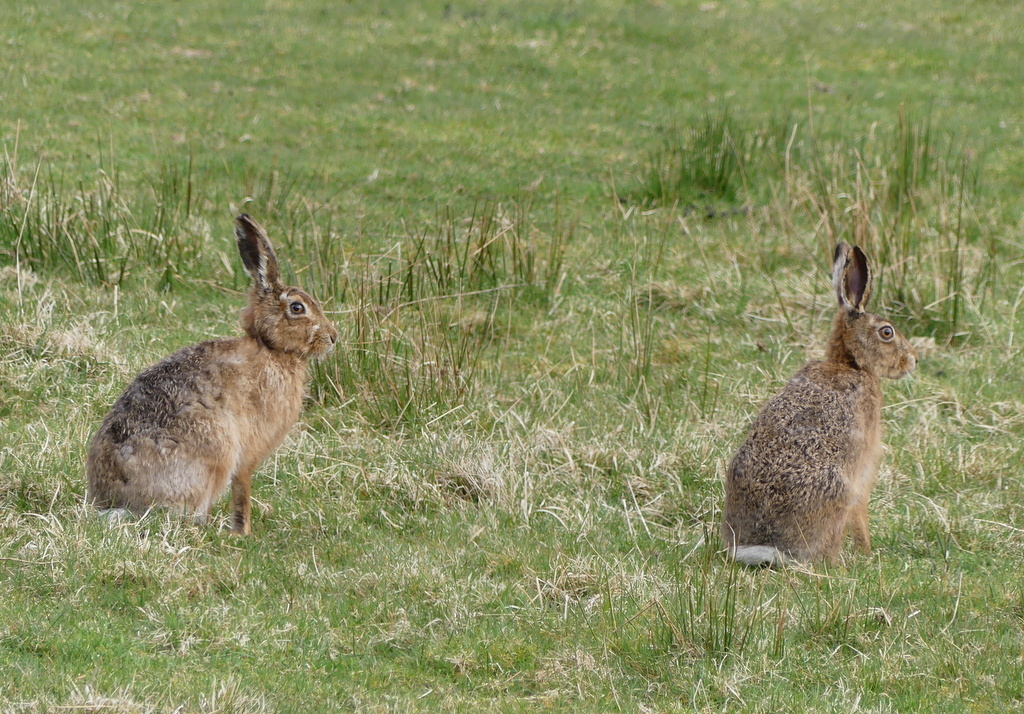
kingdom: Animalia
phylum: Chordata
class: Mammalia
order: Lagomorpha
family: Leporidae
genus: Lepus
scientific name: Lepus europaeus
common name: European hare
